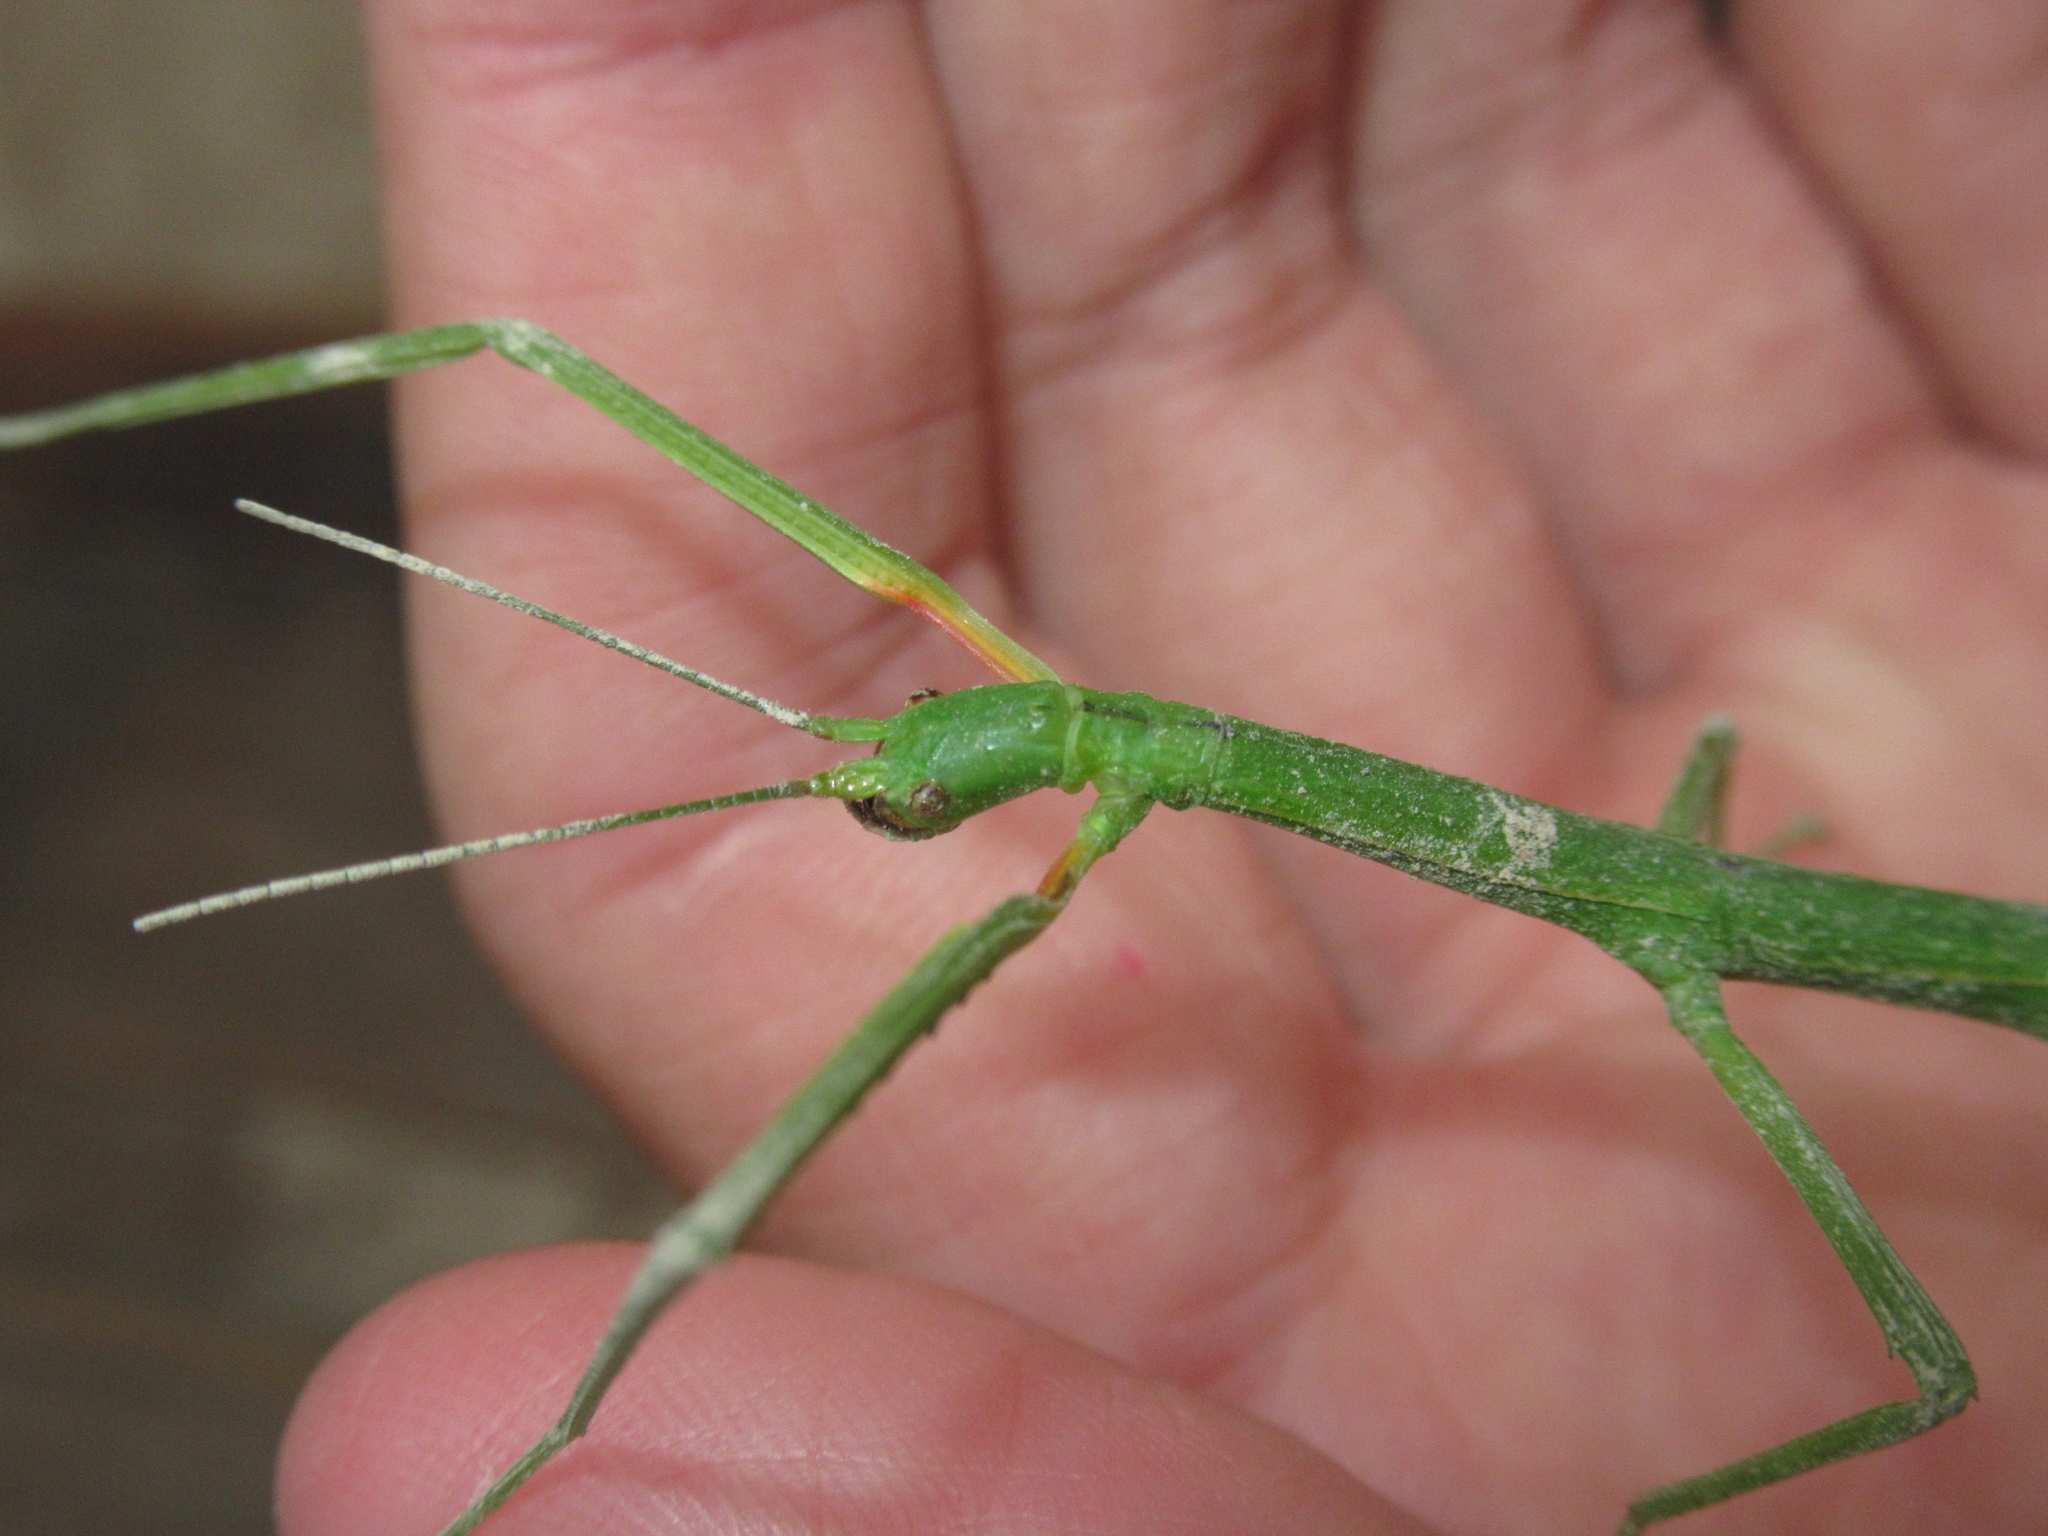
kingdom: Animalia
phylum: Arthropoda
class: Insecta
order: Phasmida
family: Phasmatidae
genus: Clitarchus
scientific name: Clitarchus hookeri
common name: Smooth stick insect
